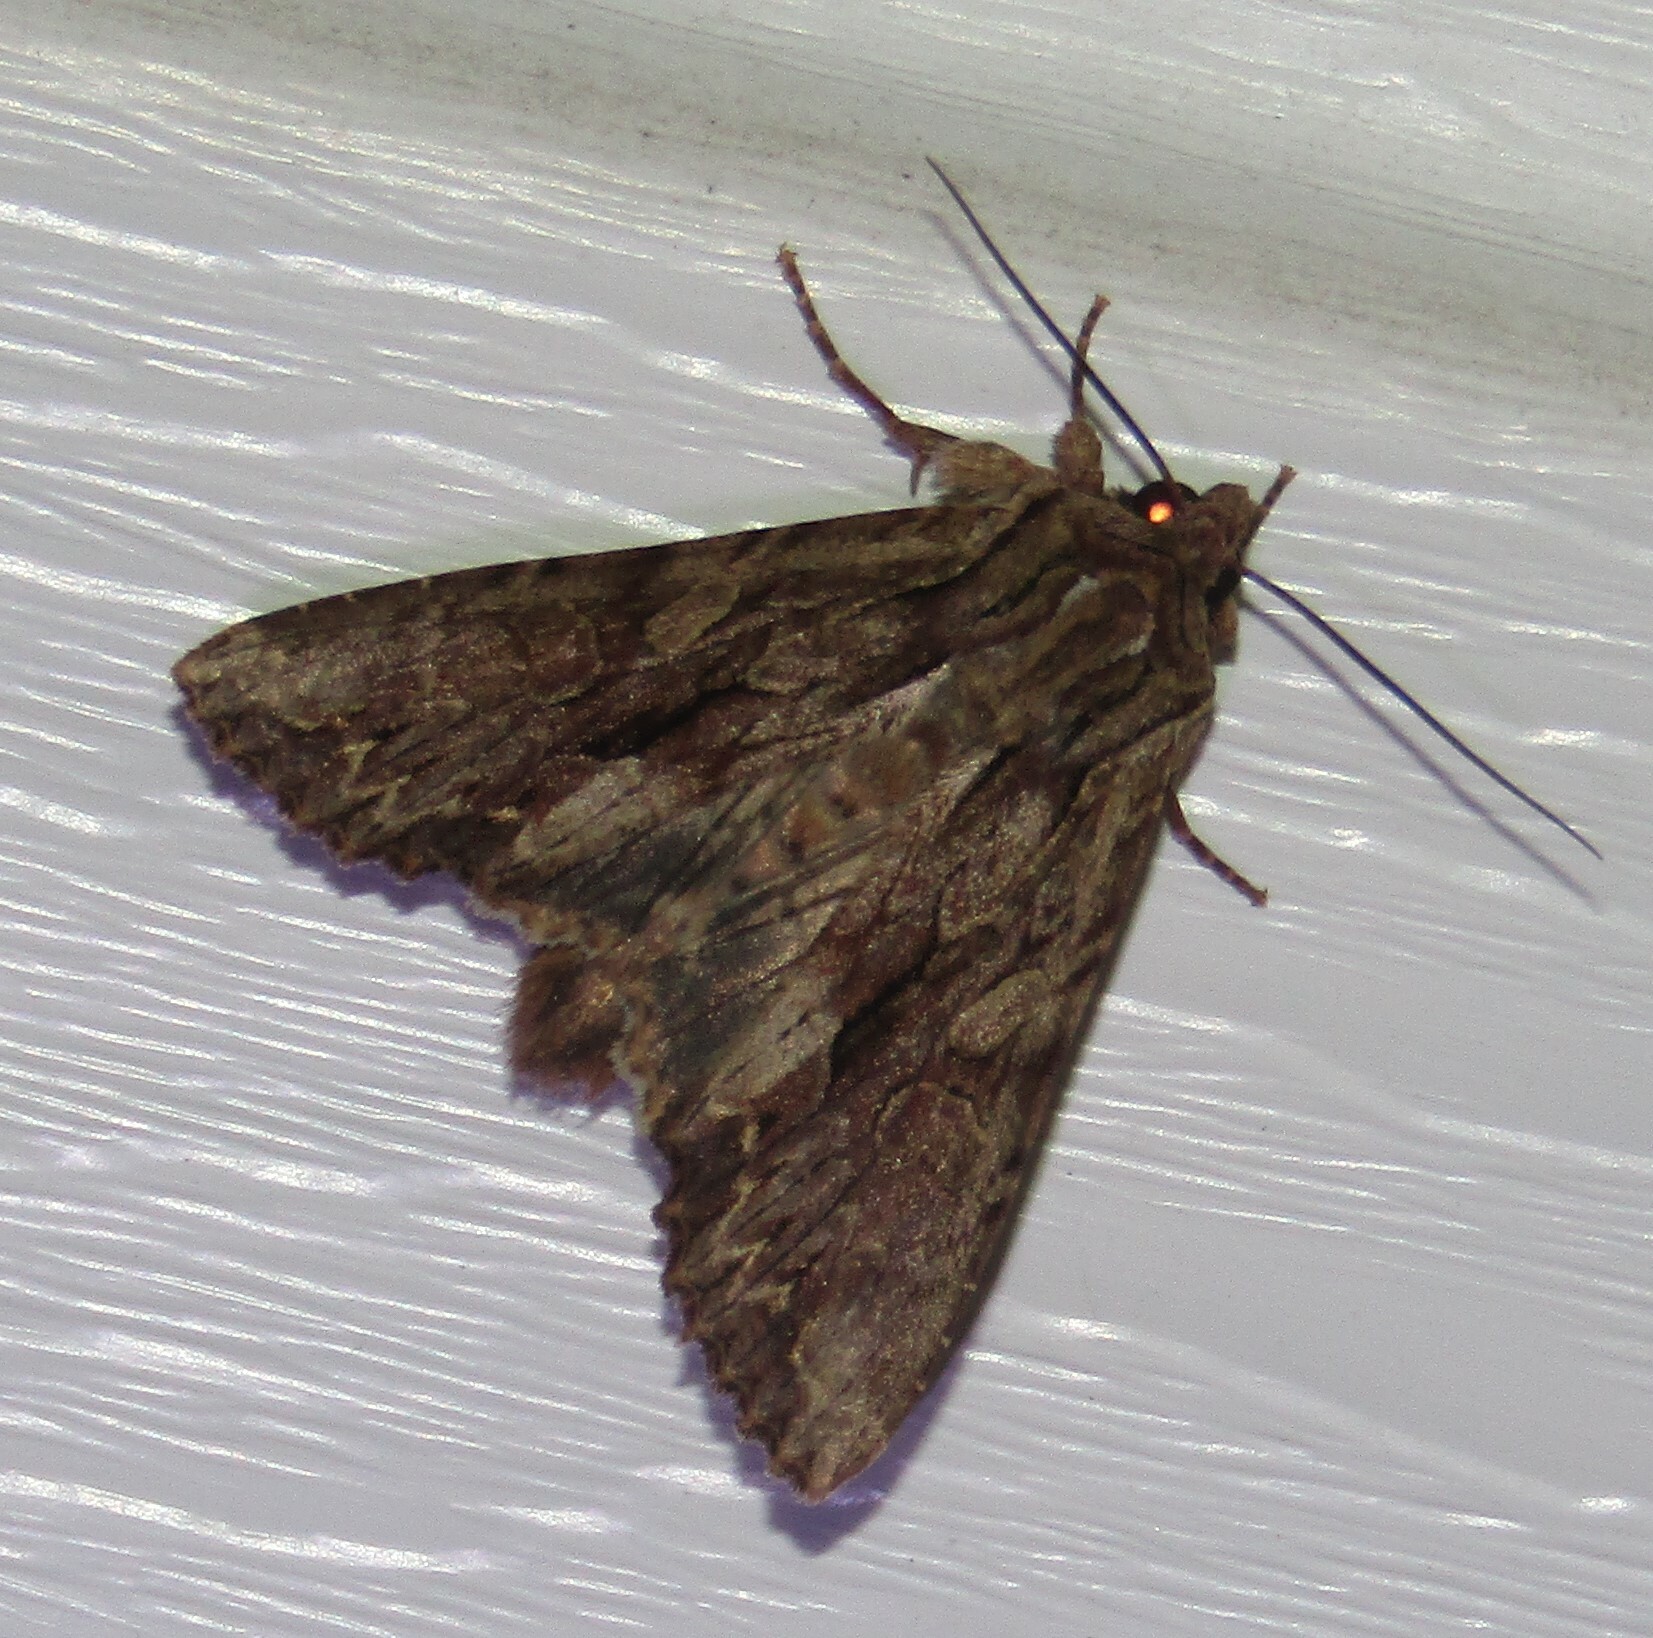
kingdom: Animalia
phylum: Arthropoda
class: Insecta
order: Lepidoptera
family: Noctuidae
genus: Apamea
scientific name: Apamea monoglypha
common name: Dark arches
